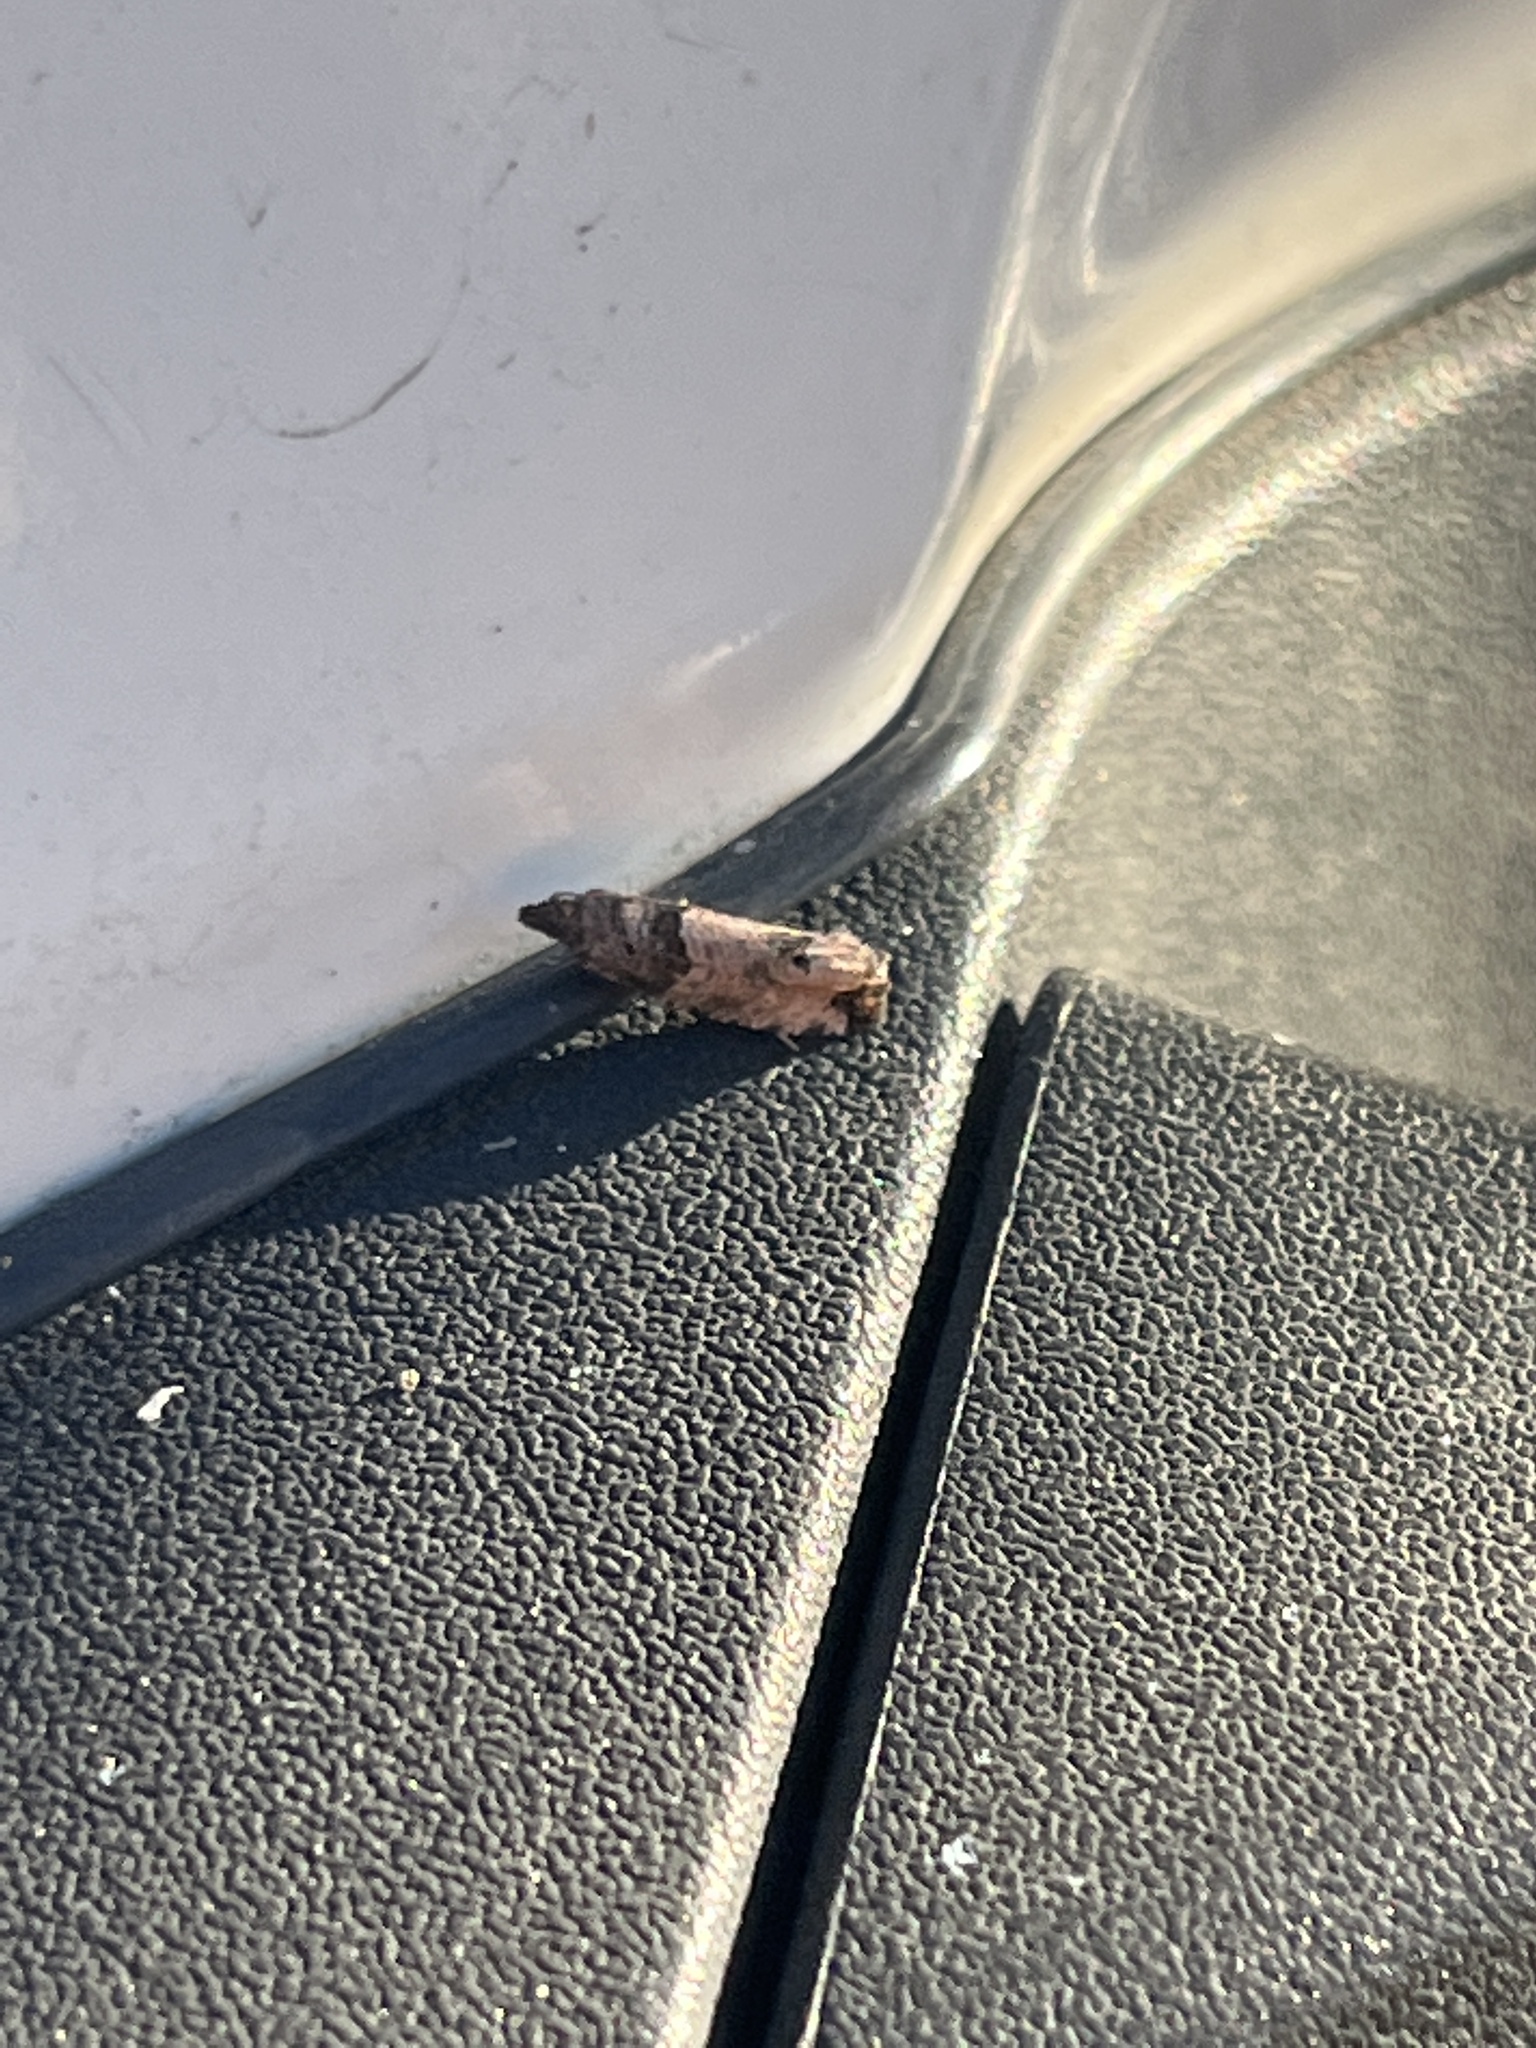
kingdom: Animalia
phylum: Arthropoda
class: Insecta
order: Lepidoptera
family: Tortricidae
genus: Spilonota
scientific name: Spilonota ocellana
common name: Bud moth
